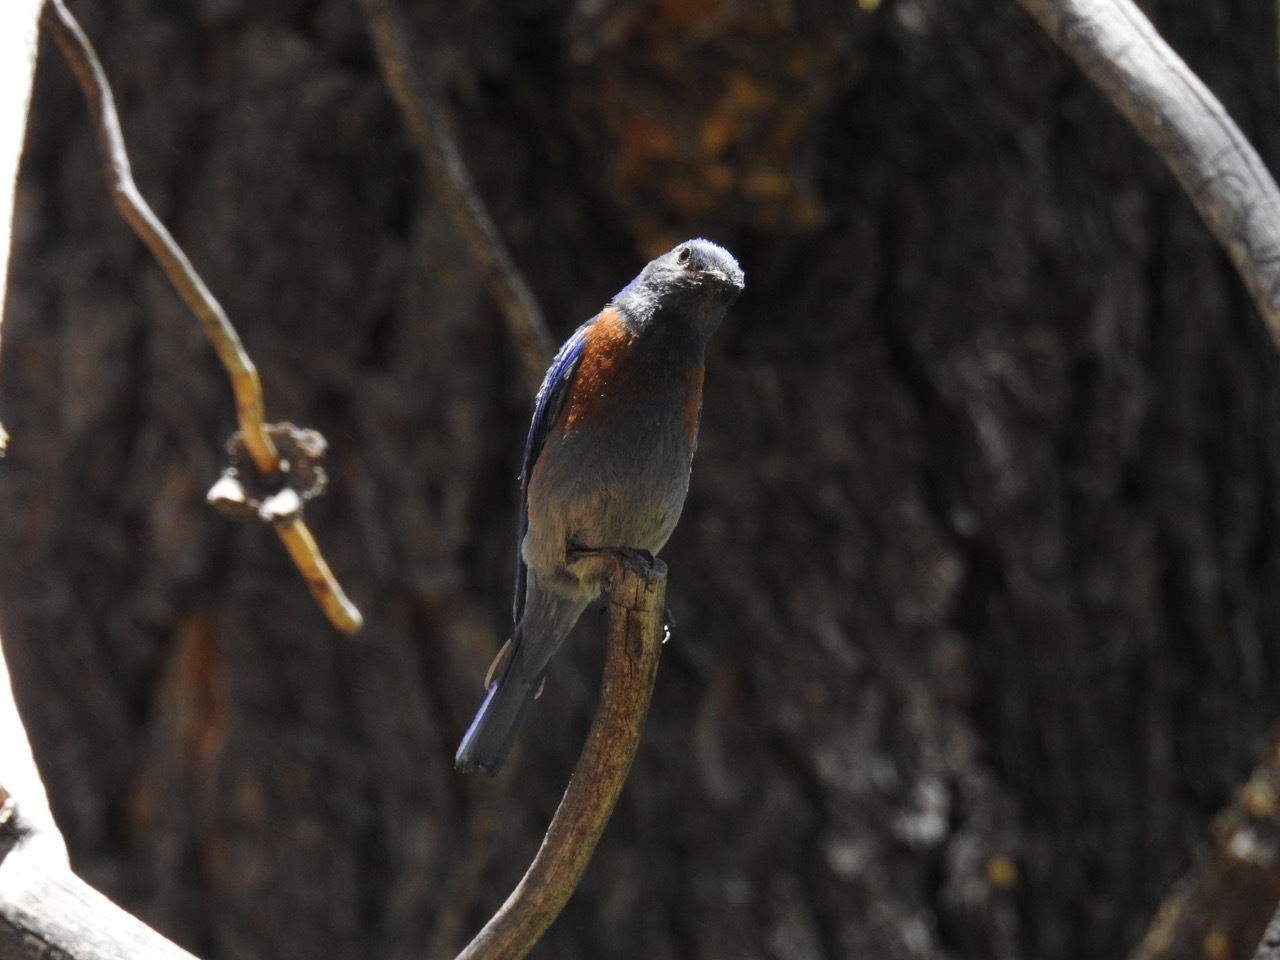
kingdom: Animalia
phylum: Chordata
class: Aves
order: Passeriformes
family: Turdidae
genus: Sialia
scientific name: Sialia mexicana
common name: Western bluebird
